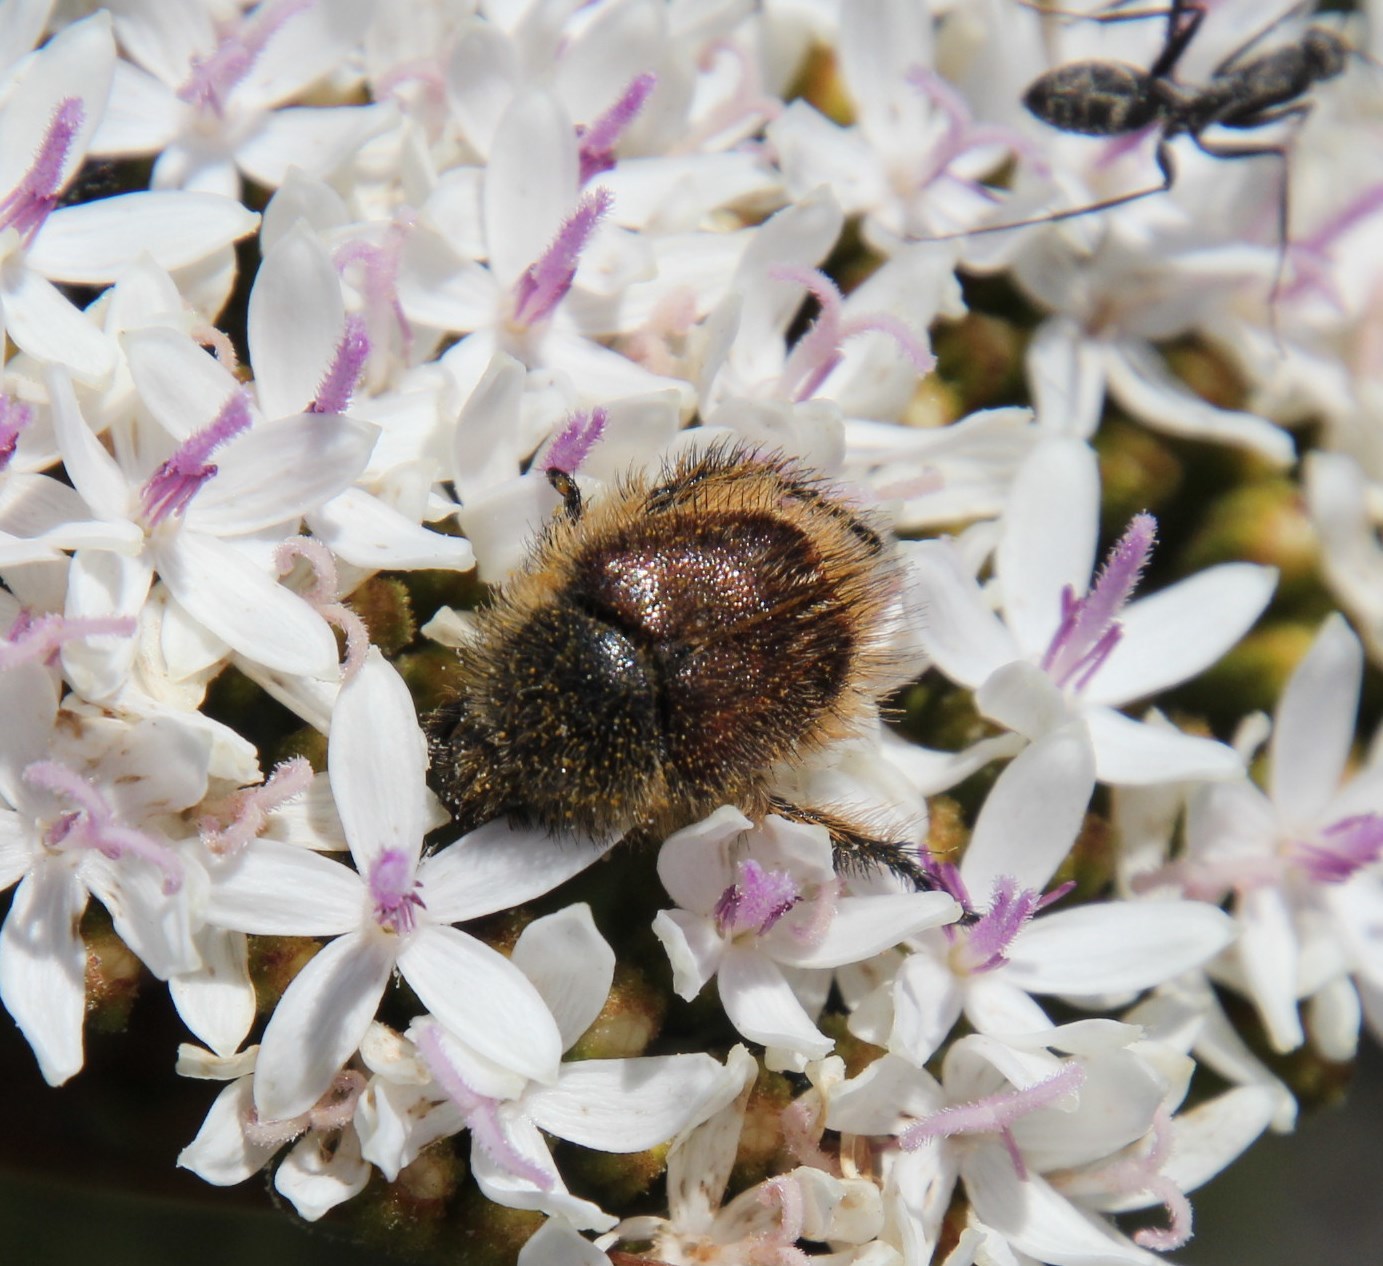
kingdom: Animalia
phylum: Arthropoda
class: Insecta
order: Coleoptera
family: Scarabaeidae
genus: Peritrichia
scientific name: Peritrichia nitidipennis
